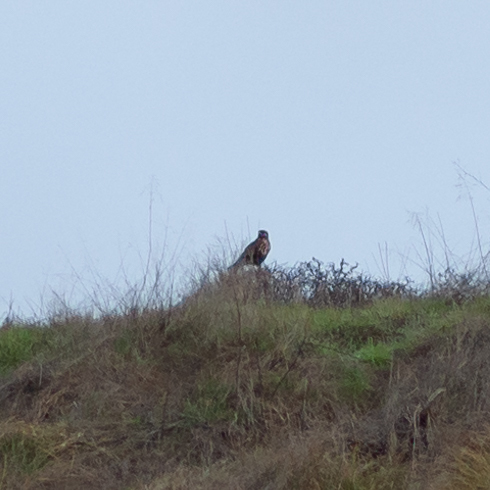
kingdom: Animalia
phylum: Chordata
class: Aves
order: Accipitriformes
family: Accipitridae
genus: Buteo
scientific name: Buteo buteo
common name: Common buzzard
